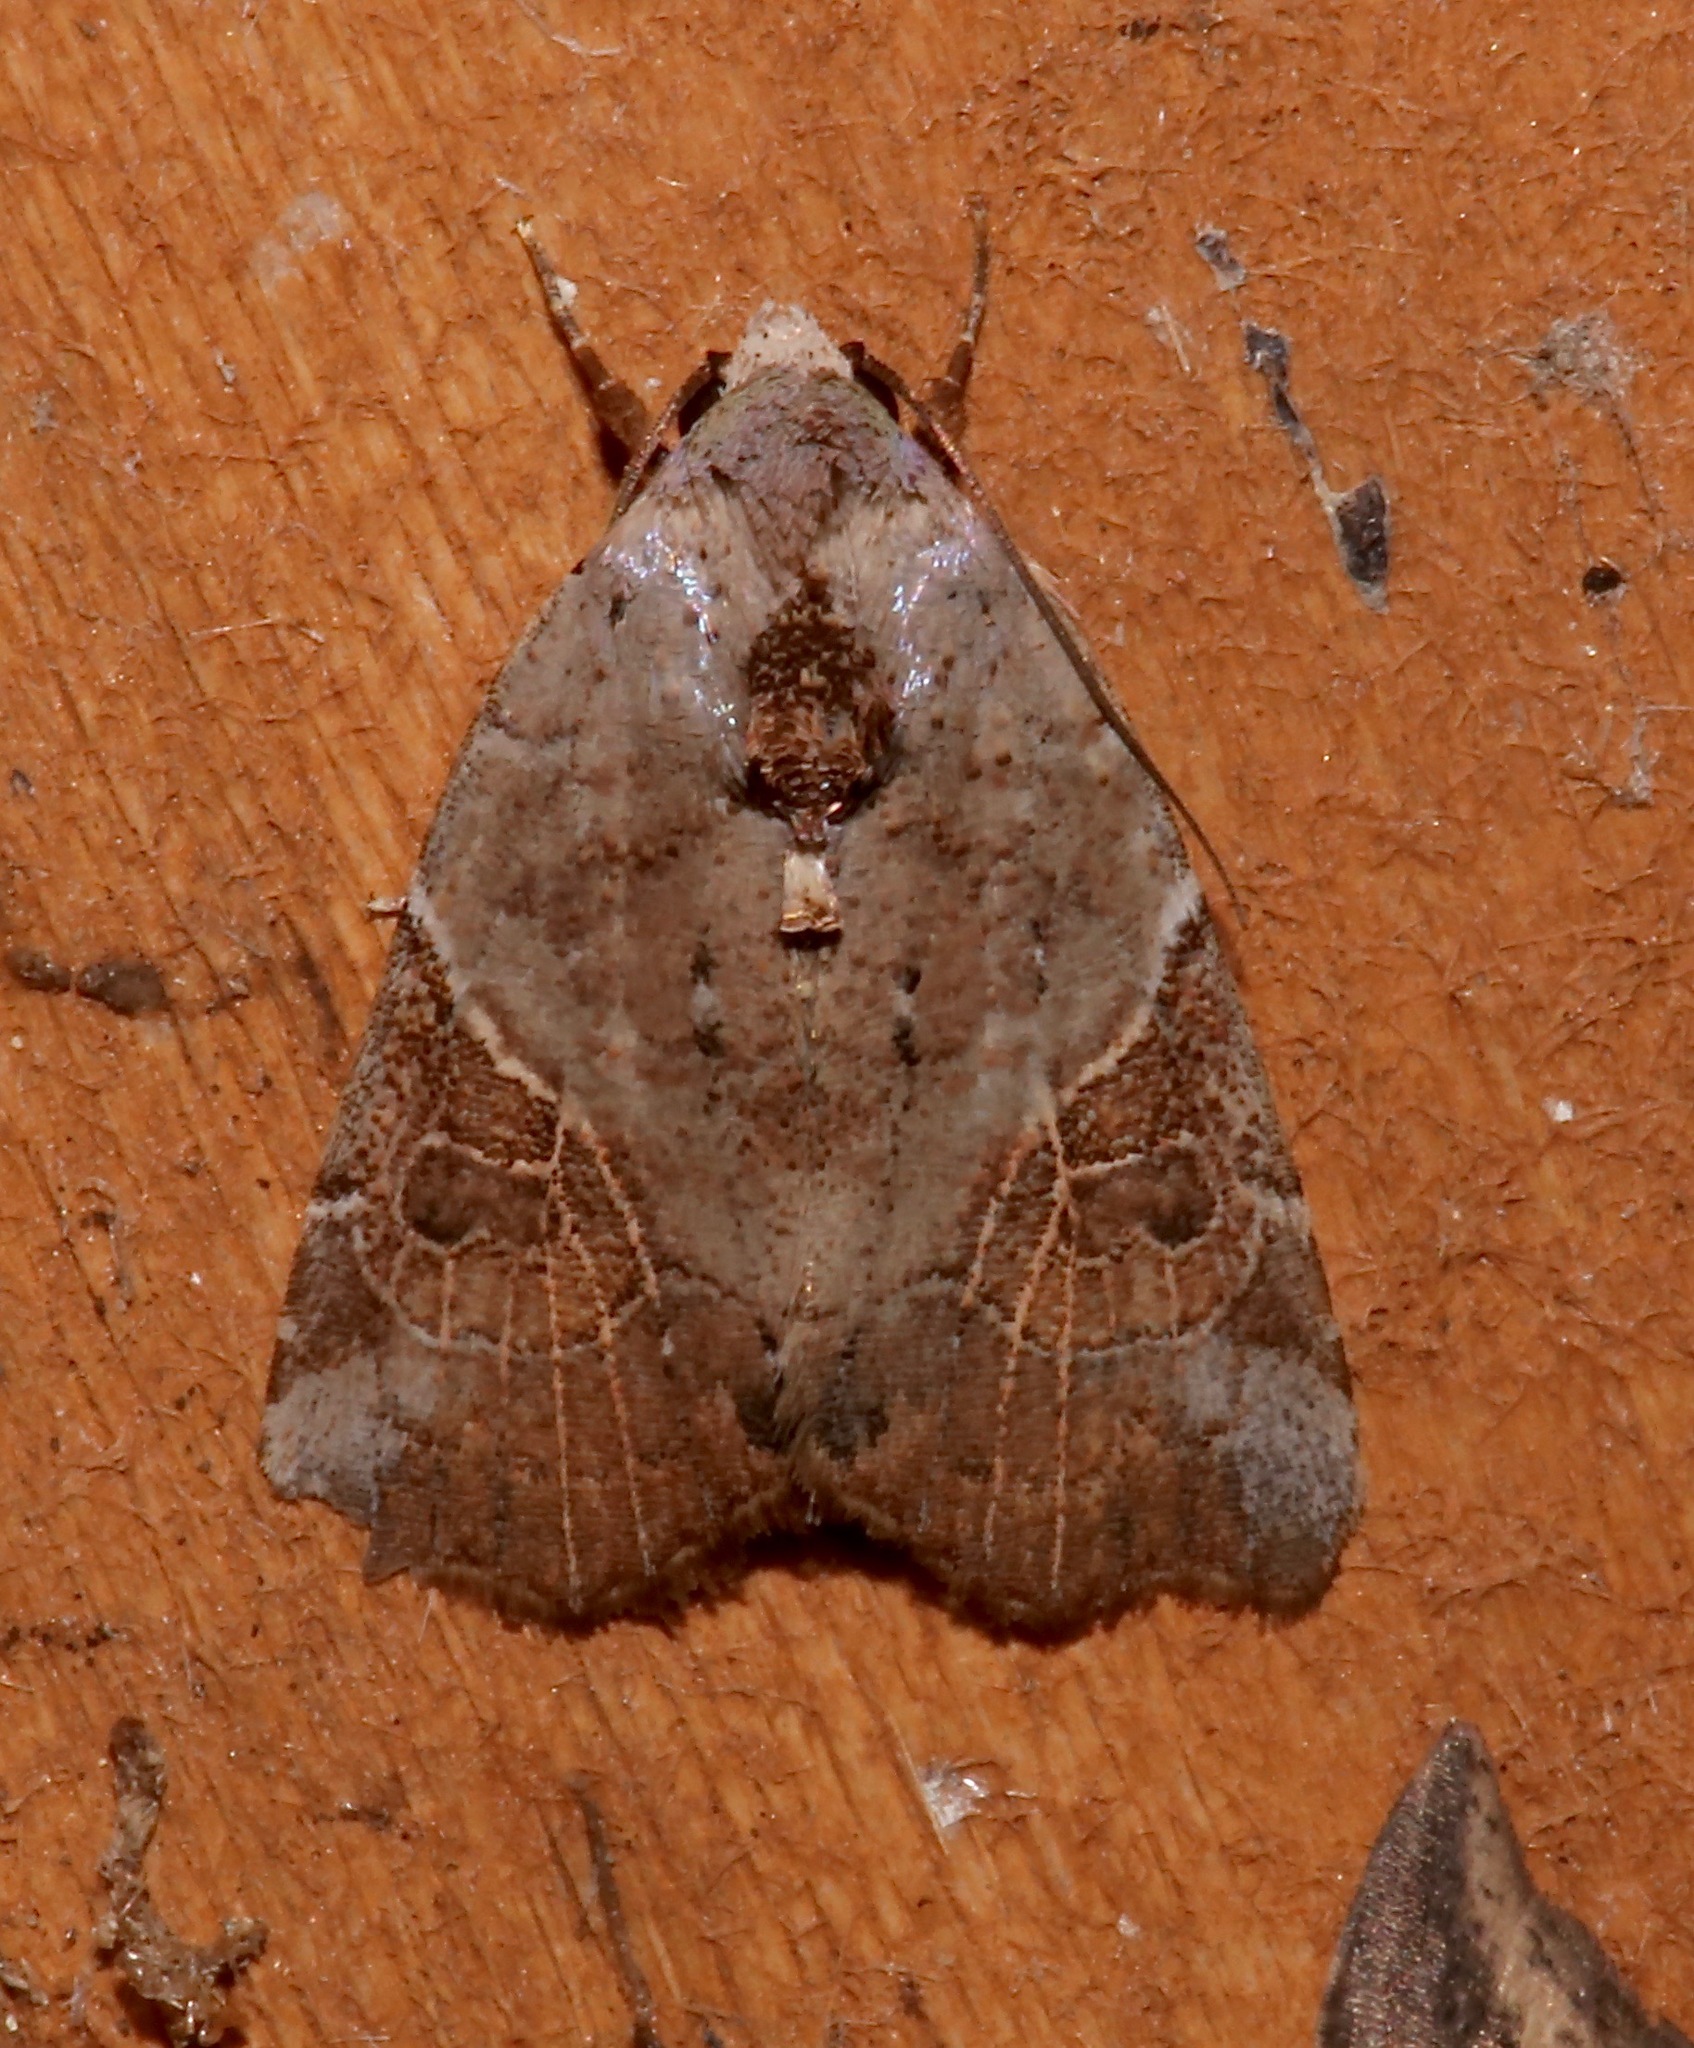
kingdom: Animalia
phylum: Arthropoda
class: Insecta
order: Lepidoptera
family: Noctuidae
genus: Gonodes
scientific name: Gonodes liquida
